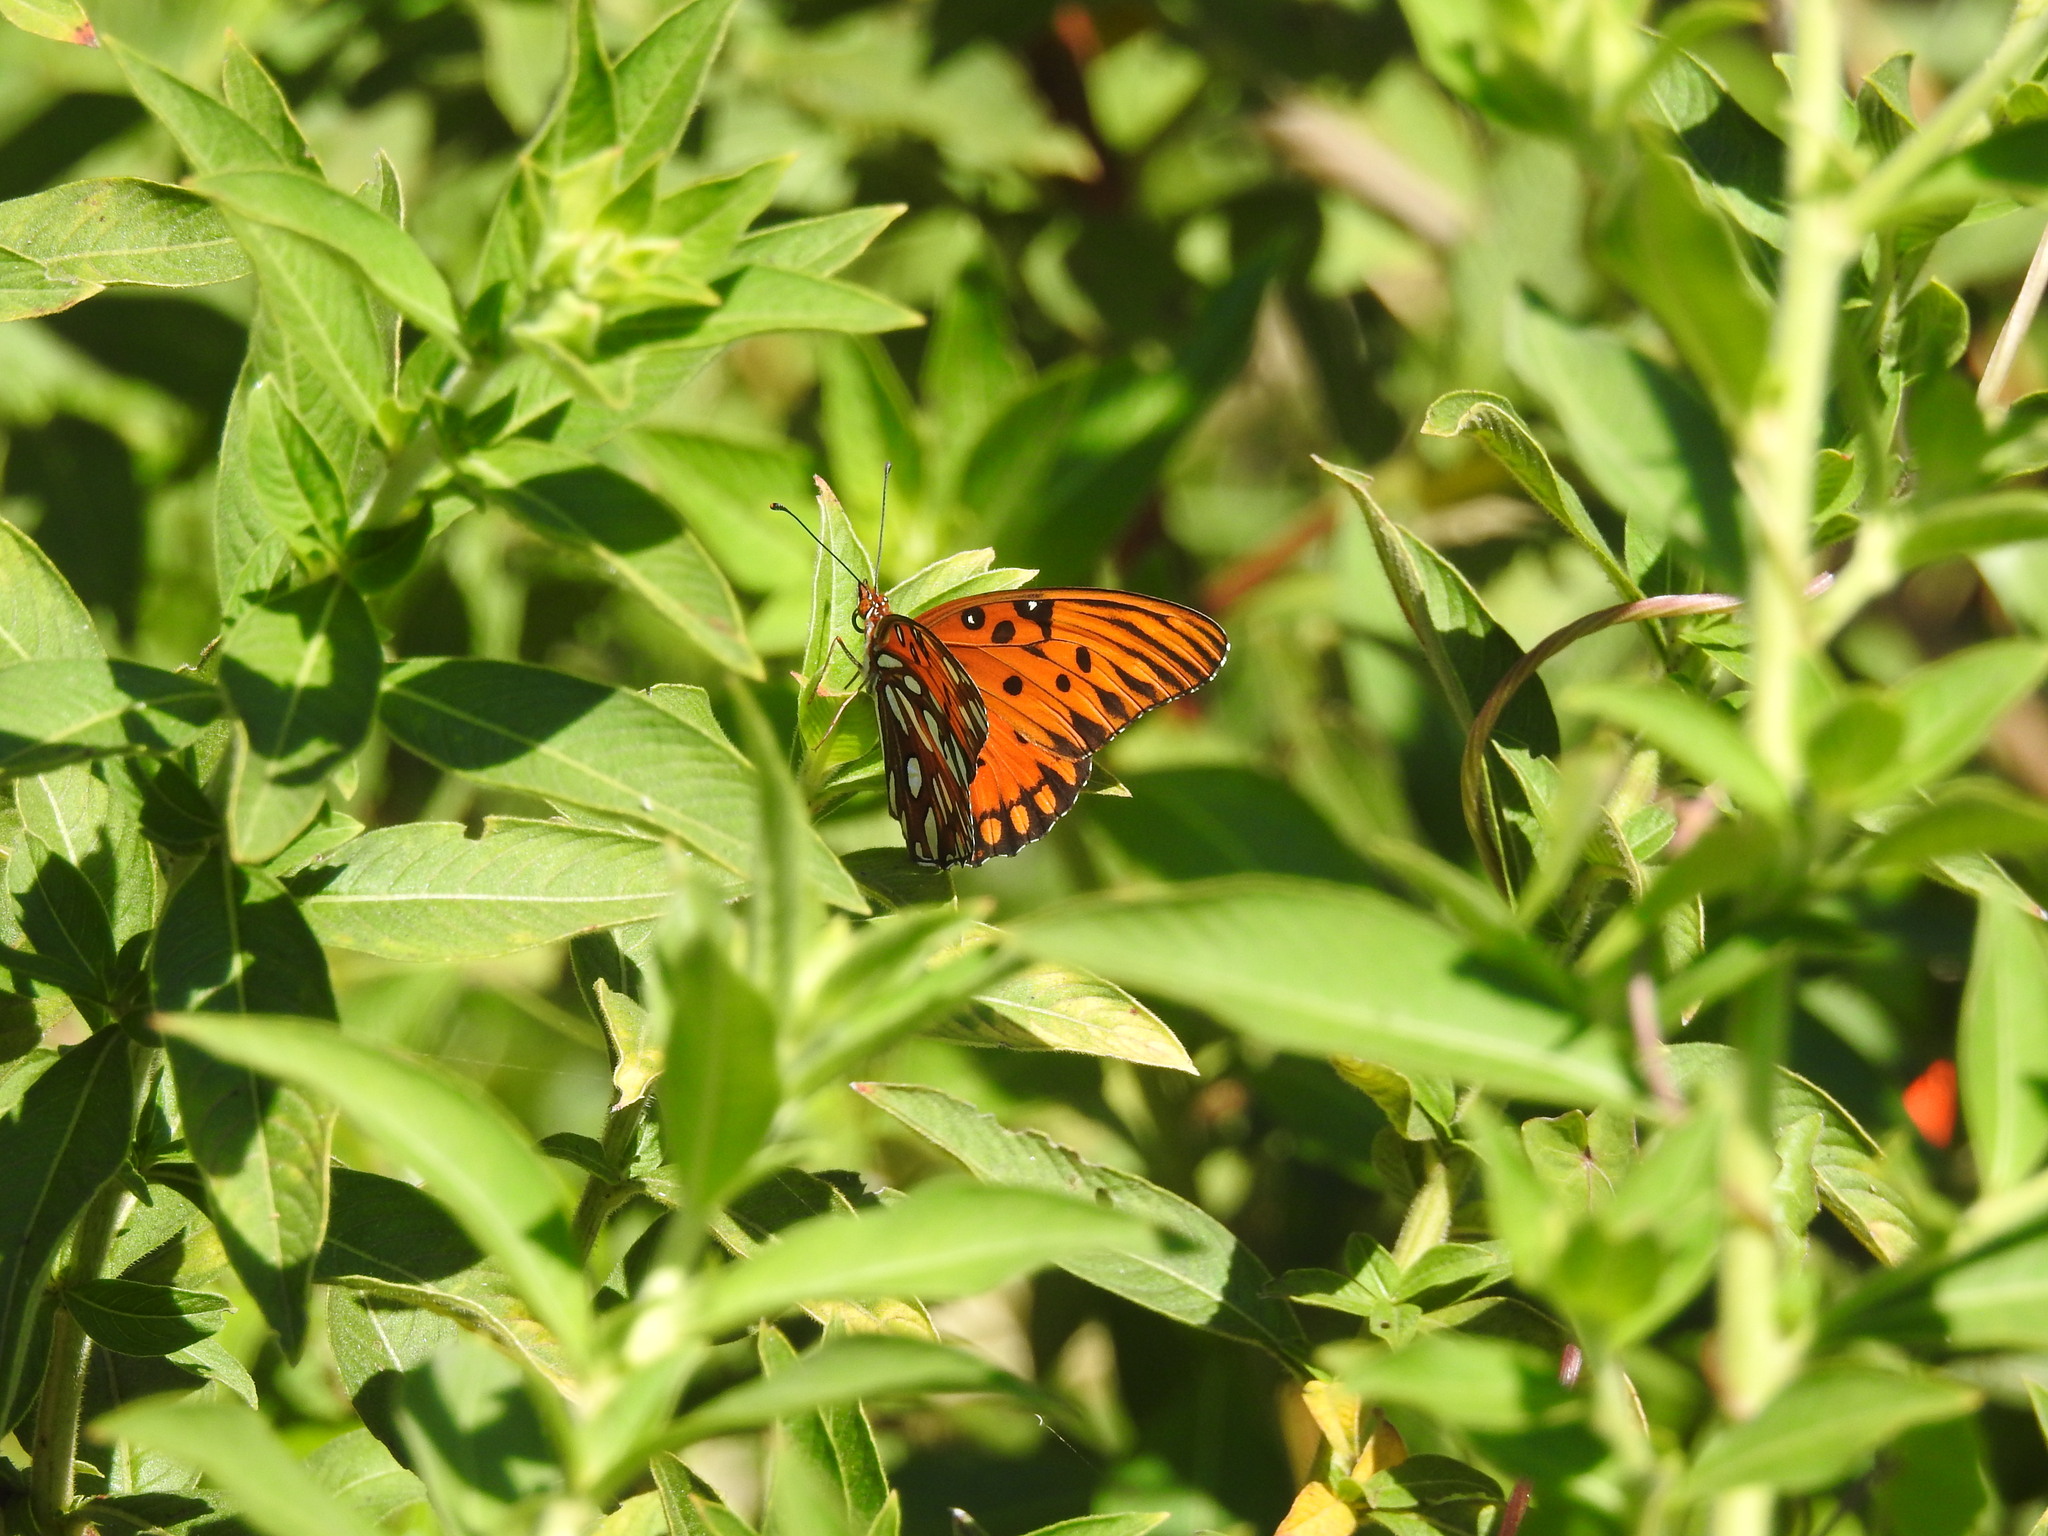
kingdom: Animalia
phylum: Arthropoda
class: Insecta
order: Lepidoptera
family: Nymphalidae
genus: Dione
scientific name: Dione vanillae
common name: Gulf fritillary
